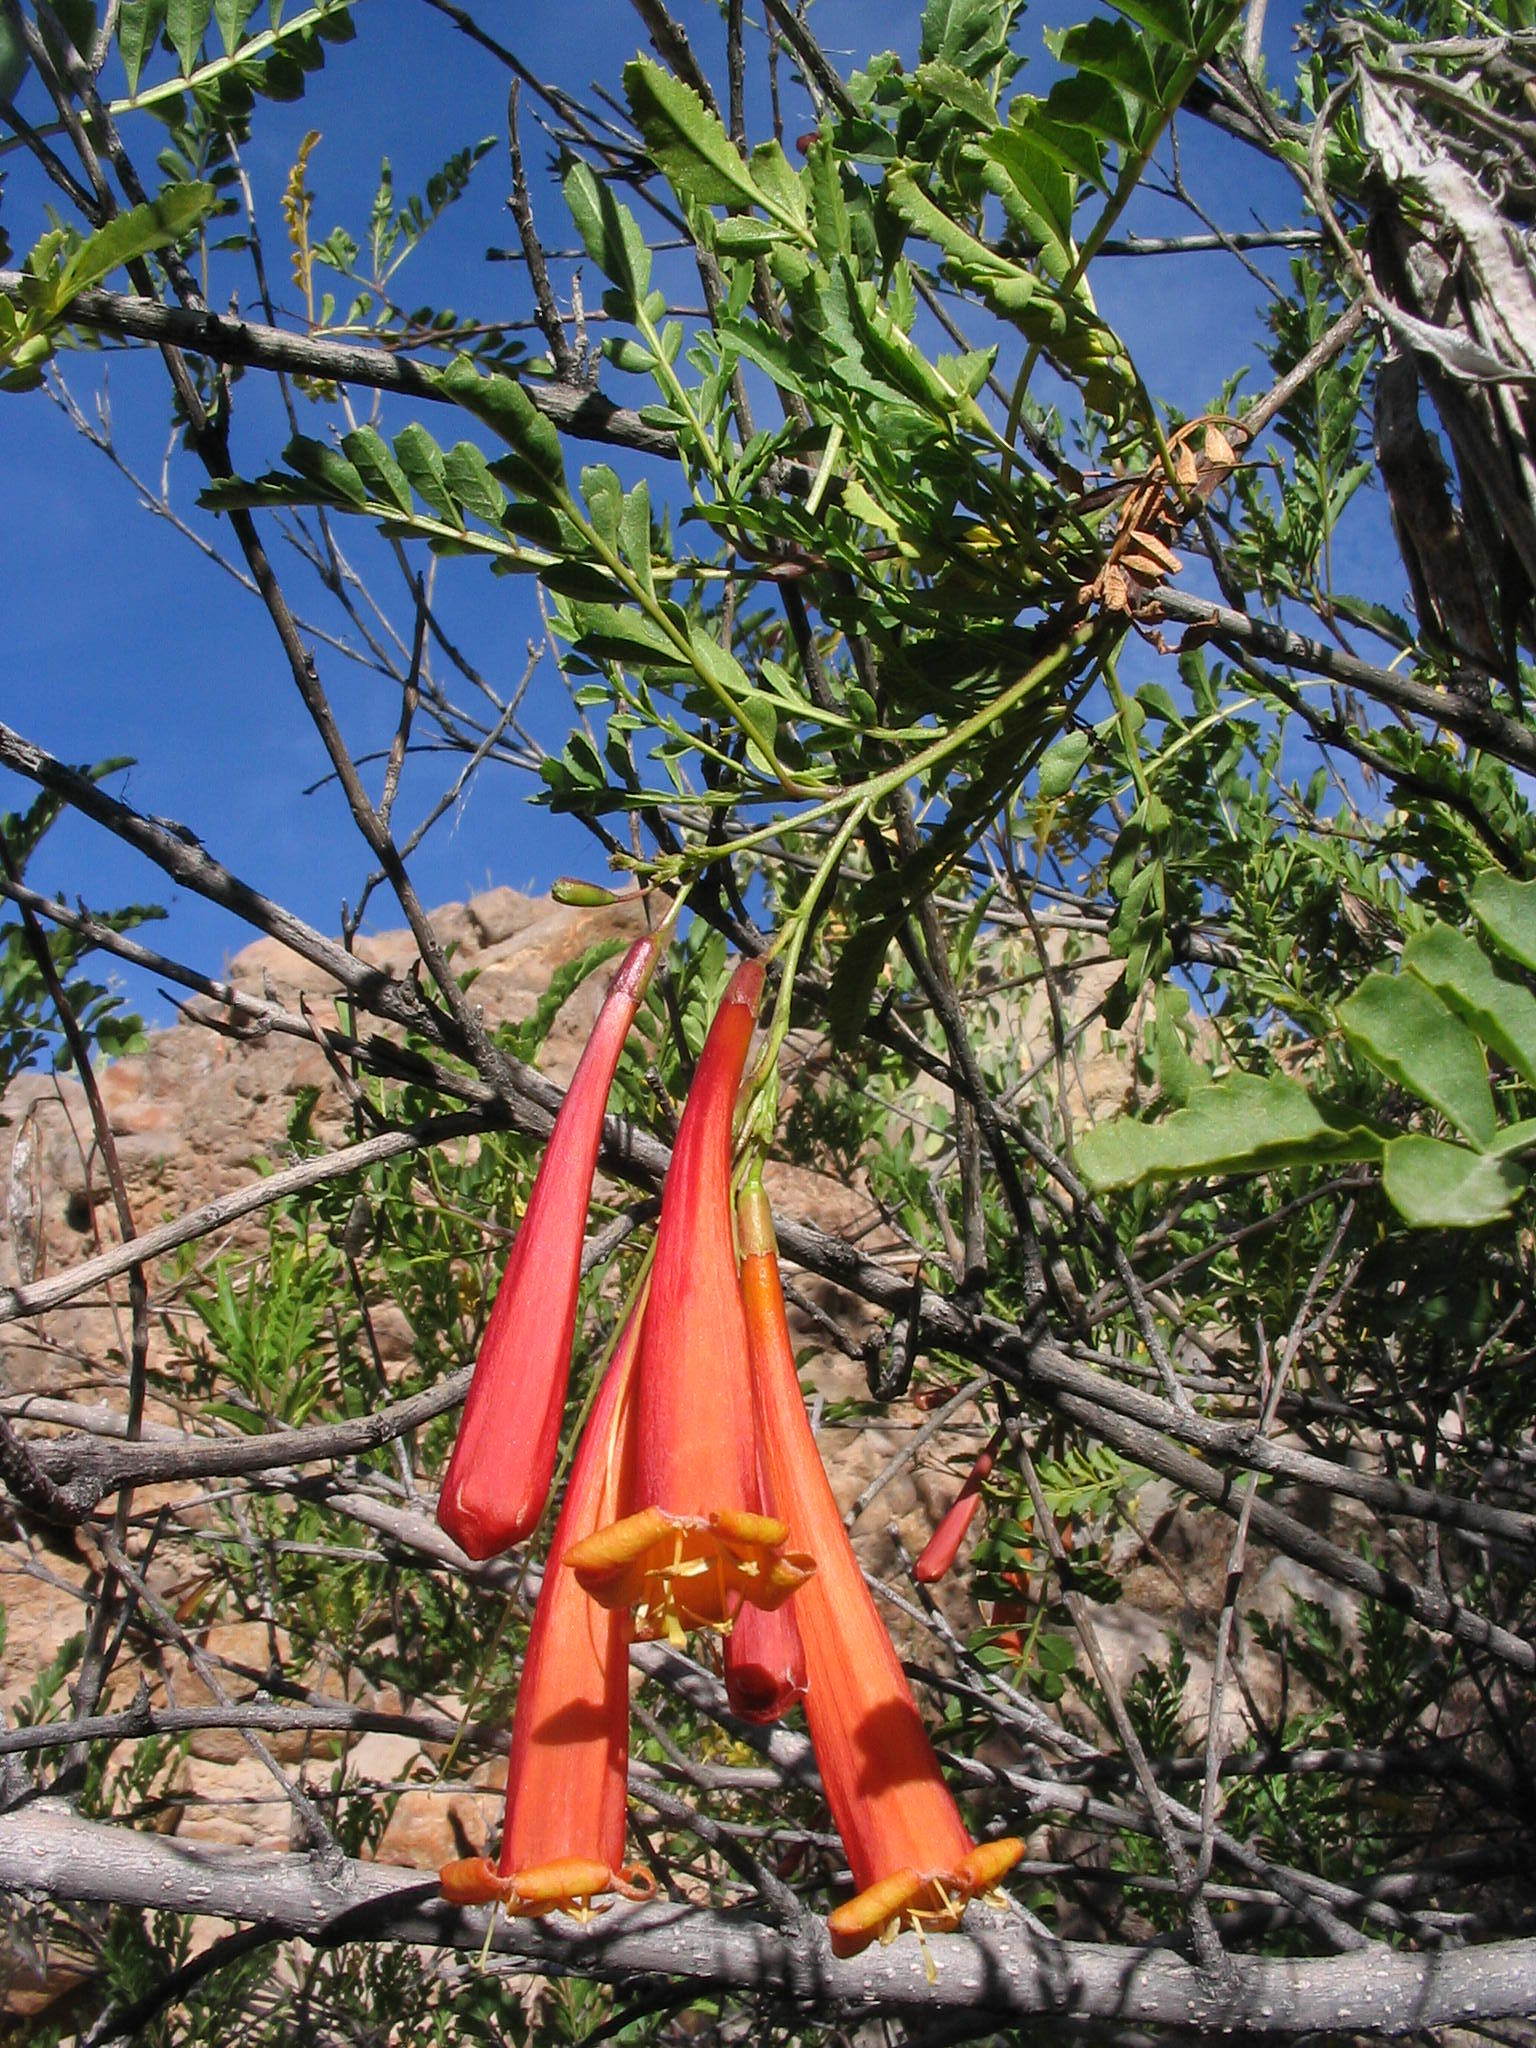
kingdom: Plantae
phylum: Tracheophyta
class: Magnoliopsida
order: Lamiales
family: Bignoniaceae
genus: Tecoma
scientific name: Tecoma fulva
